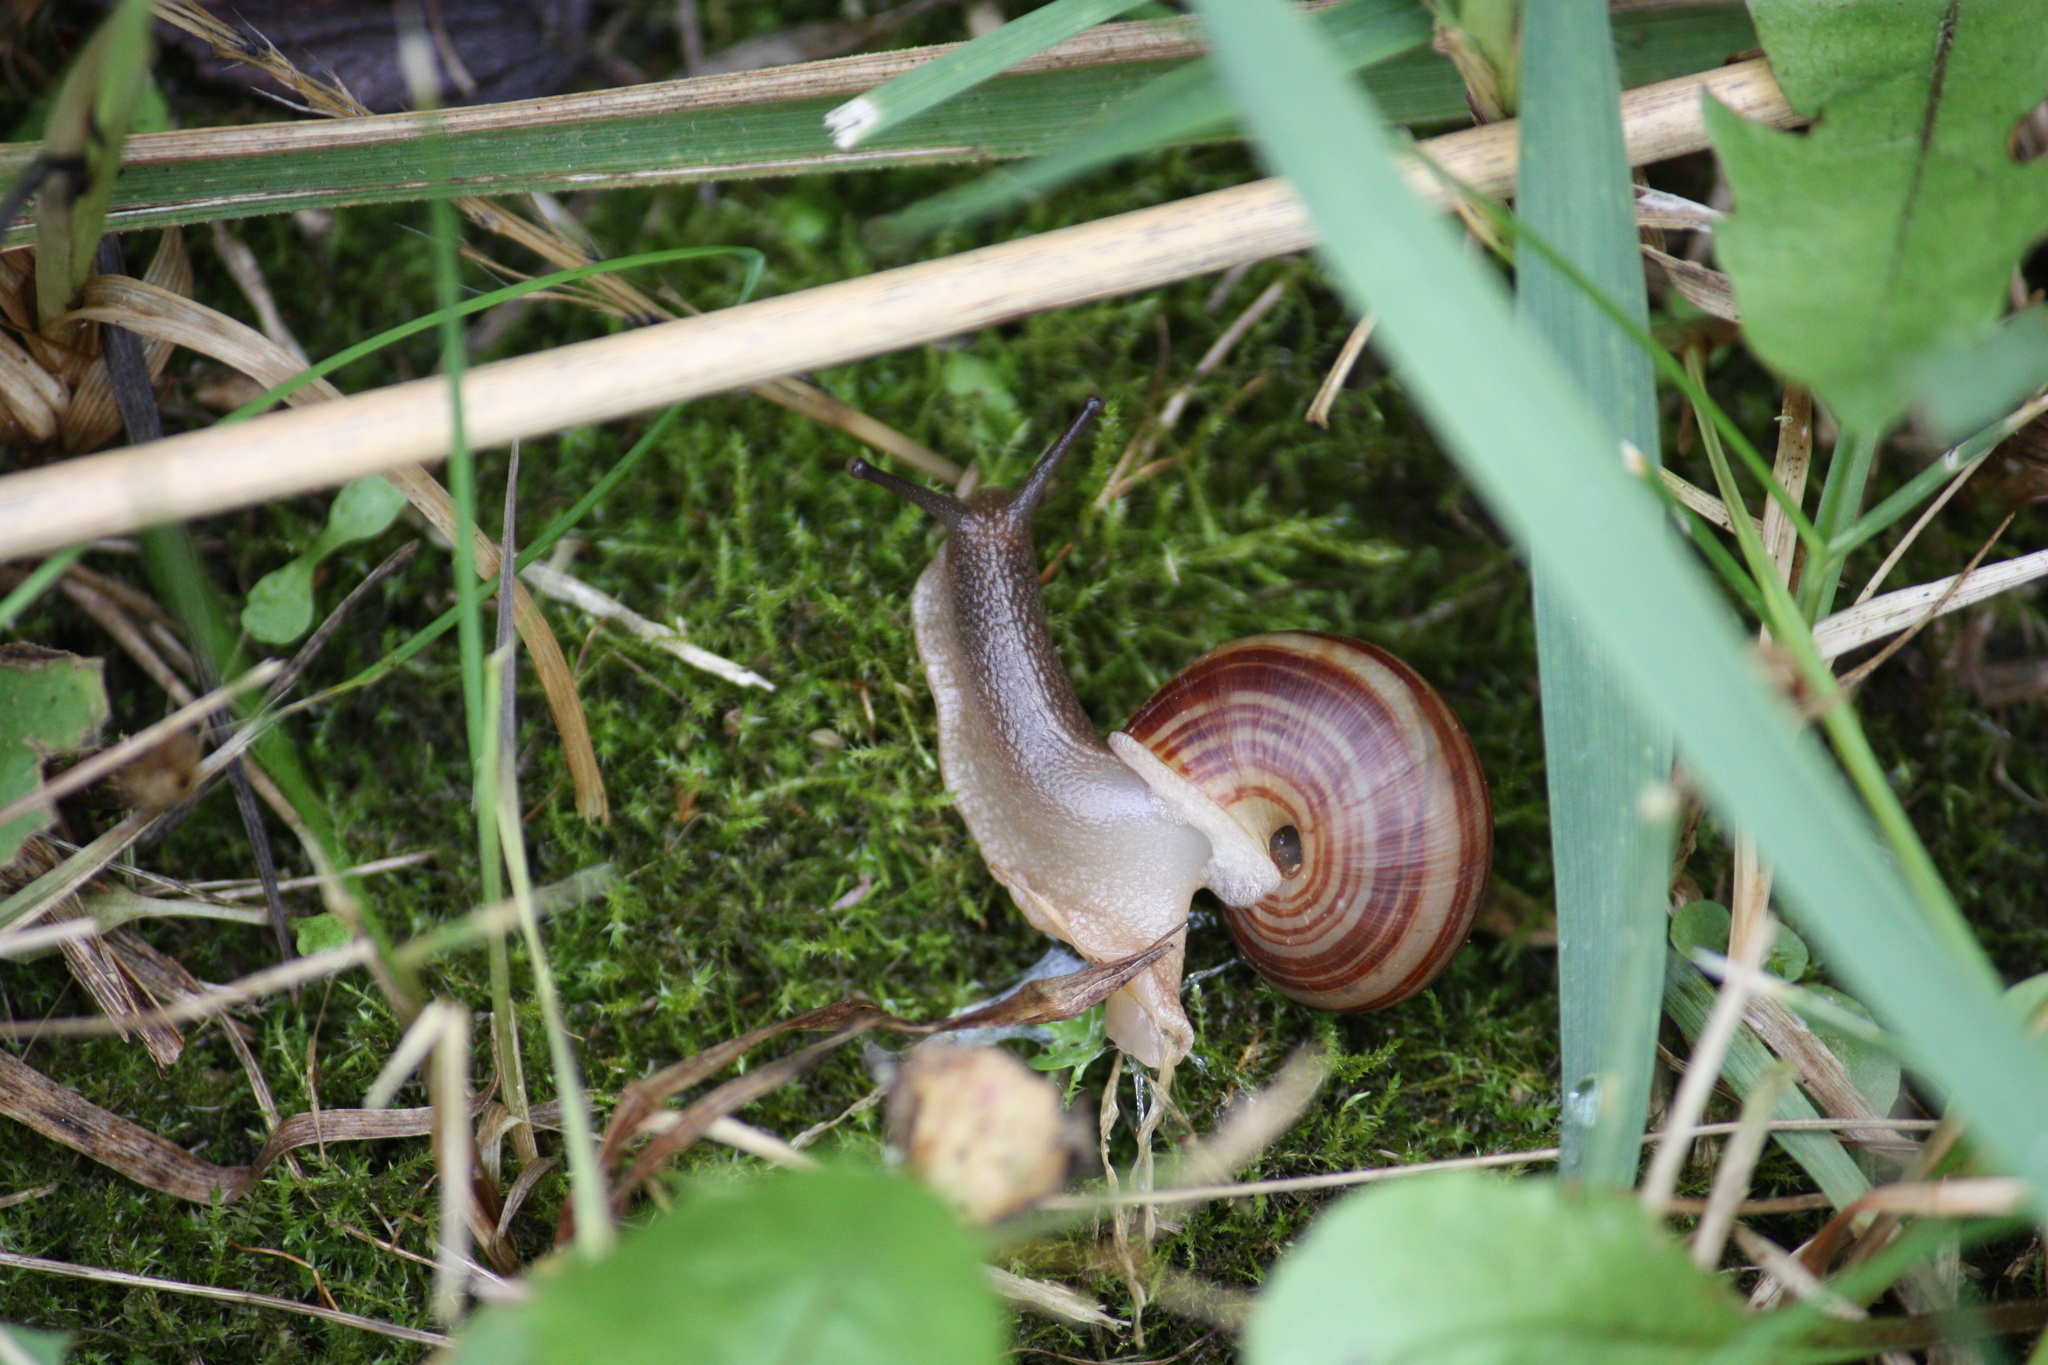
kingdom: Animalia
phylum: Mollusca
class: Gastropoda
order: Stylommatophora
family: Polygyridae
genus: Webbhelix
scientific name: Webbhelix multilineata
